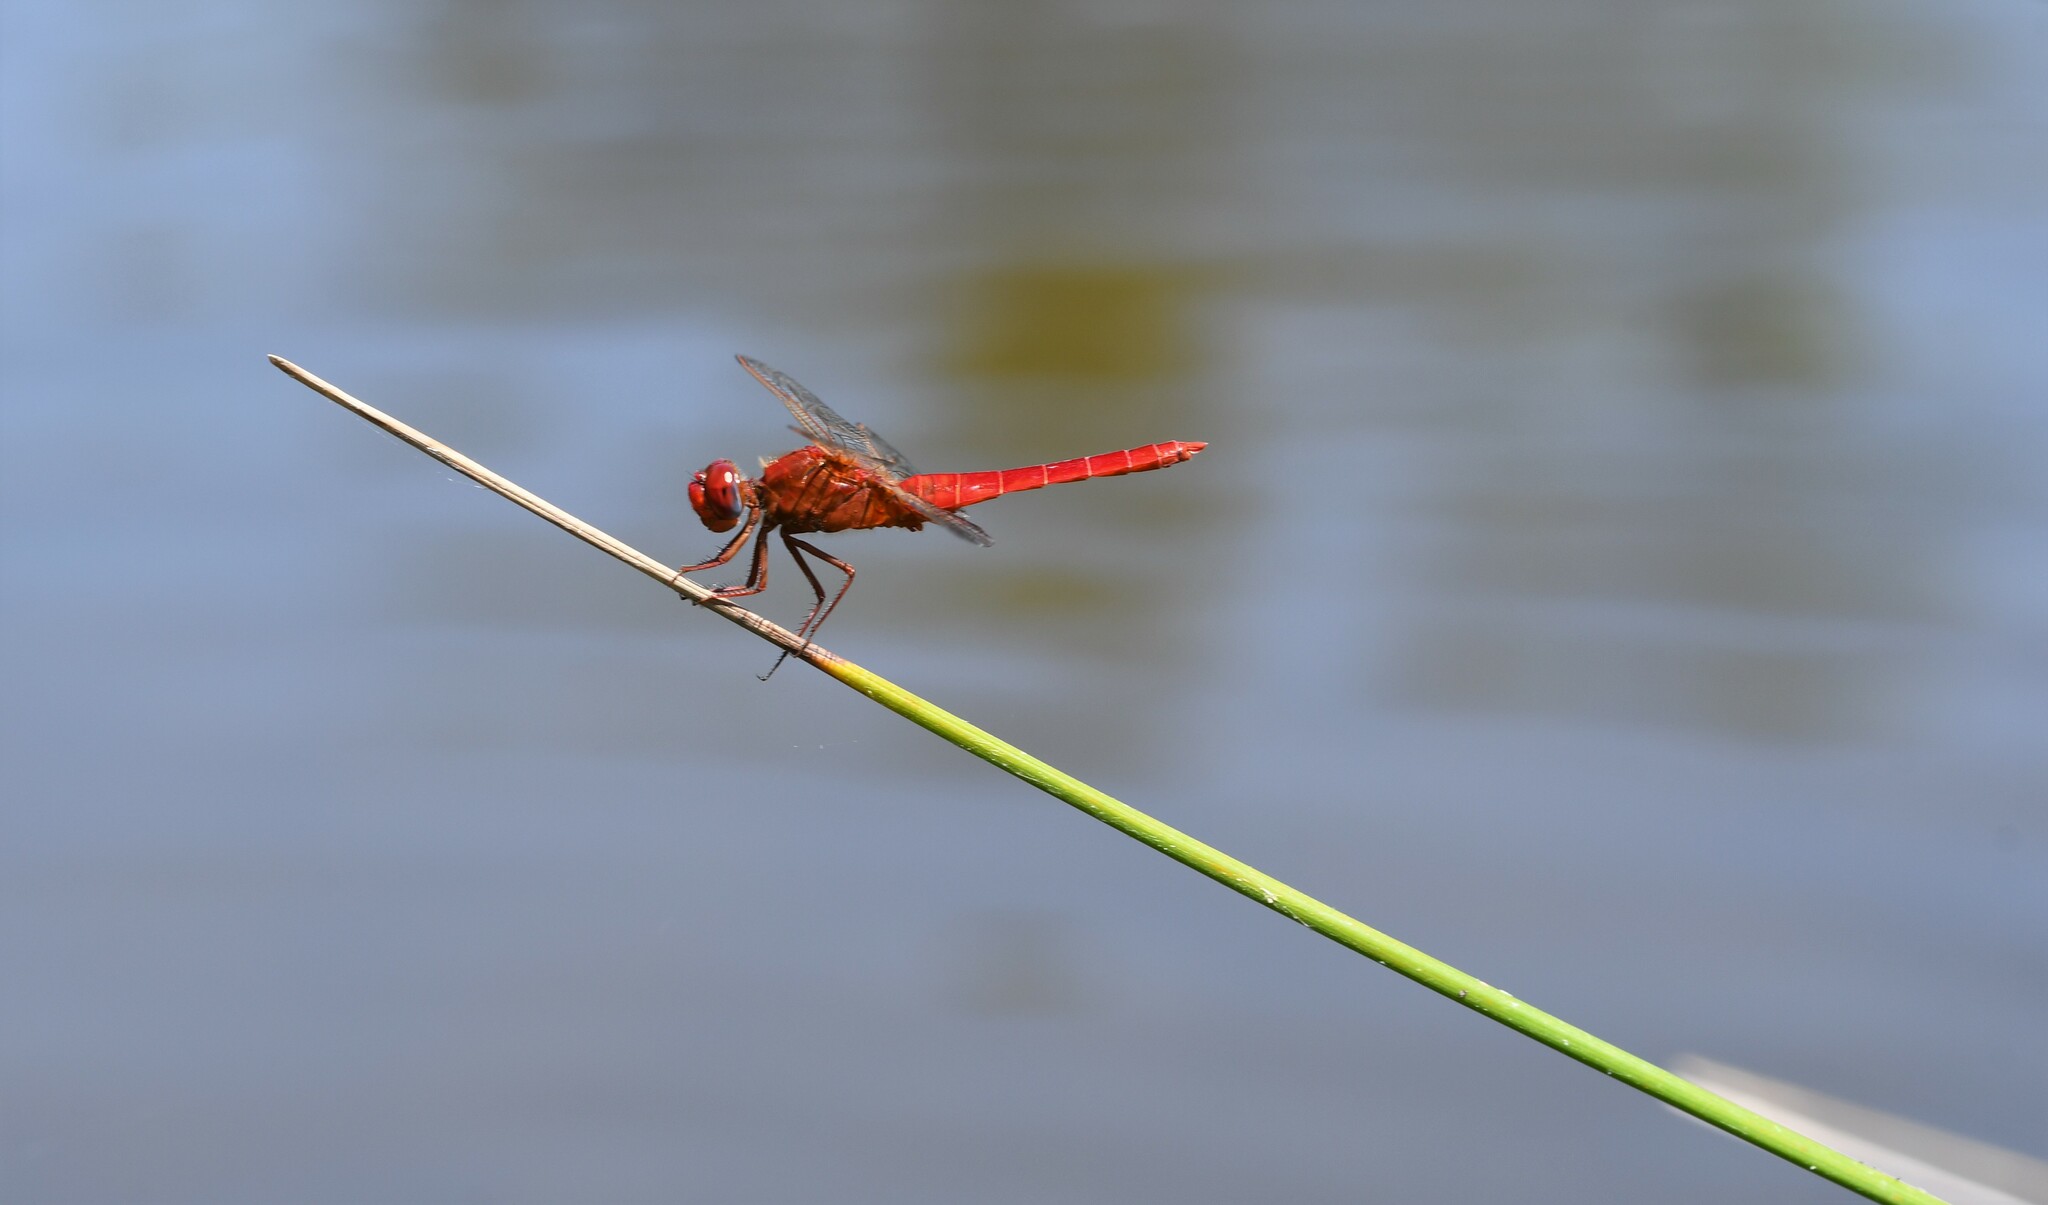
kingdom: Animalia
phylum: Arthropoda
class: Insecta
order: Odonata
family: Libellulidae
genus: Crocothemis
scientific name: Crocothemis erythraea
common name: Scarlet dragonfly
